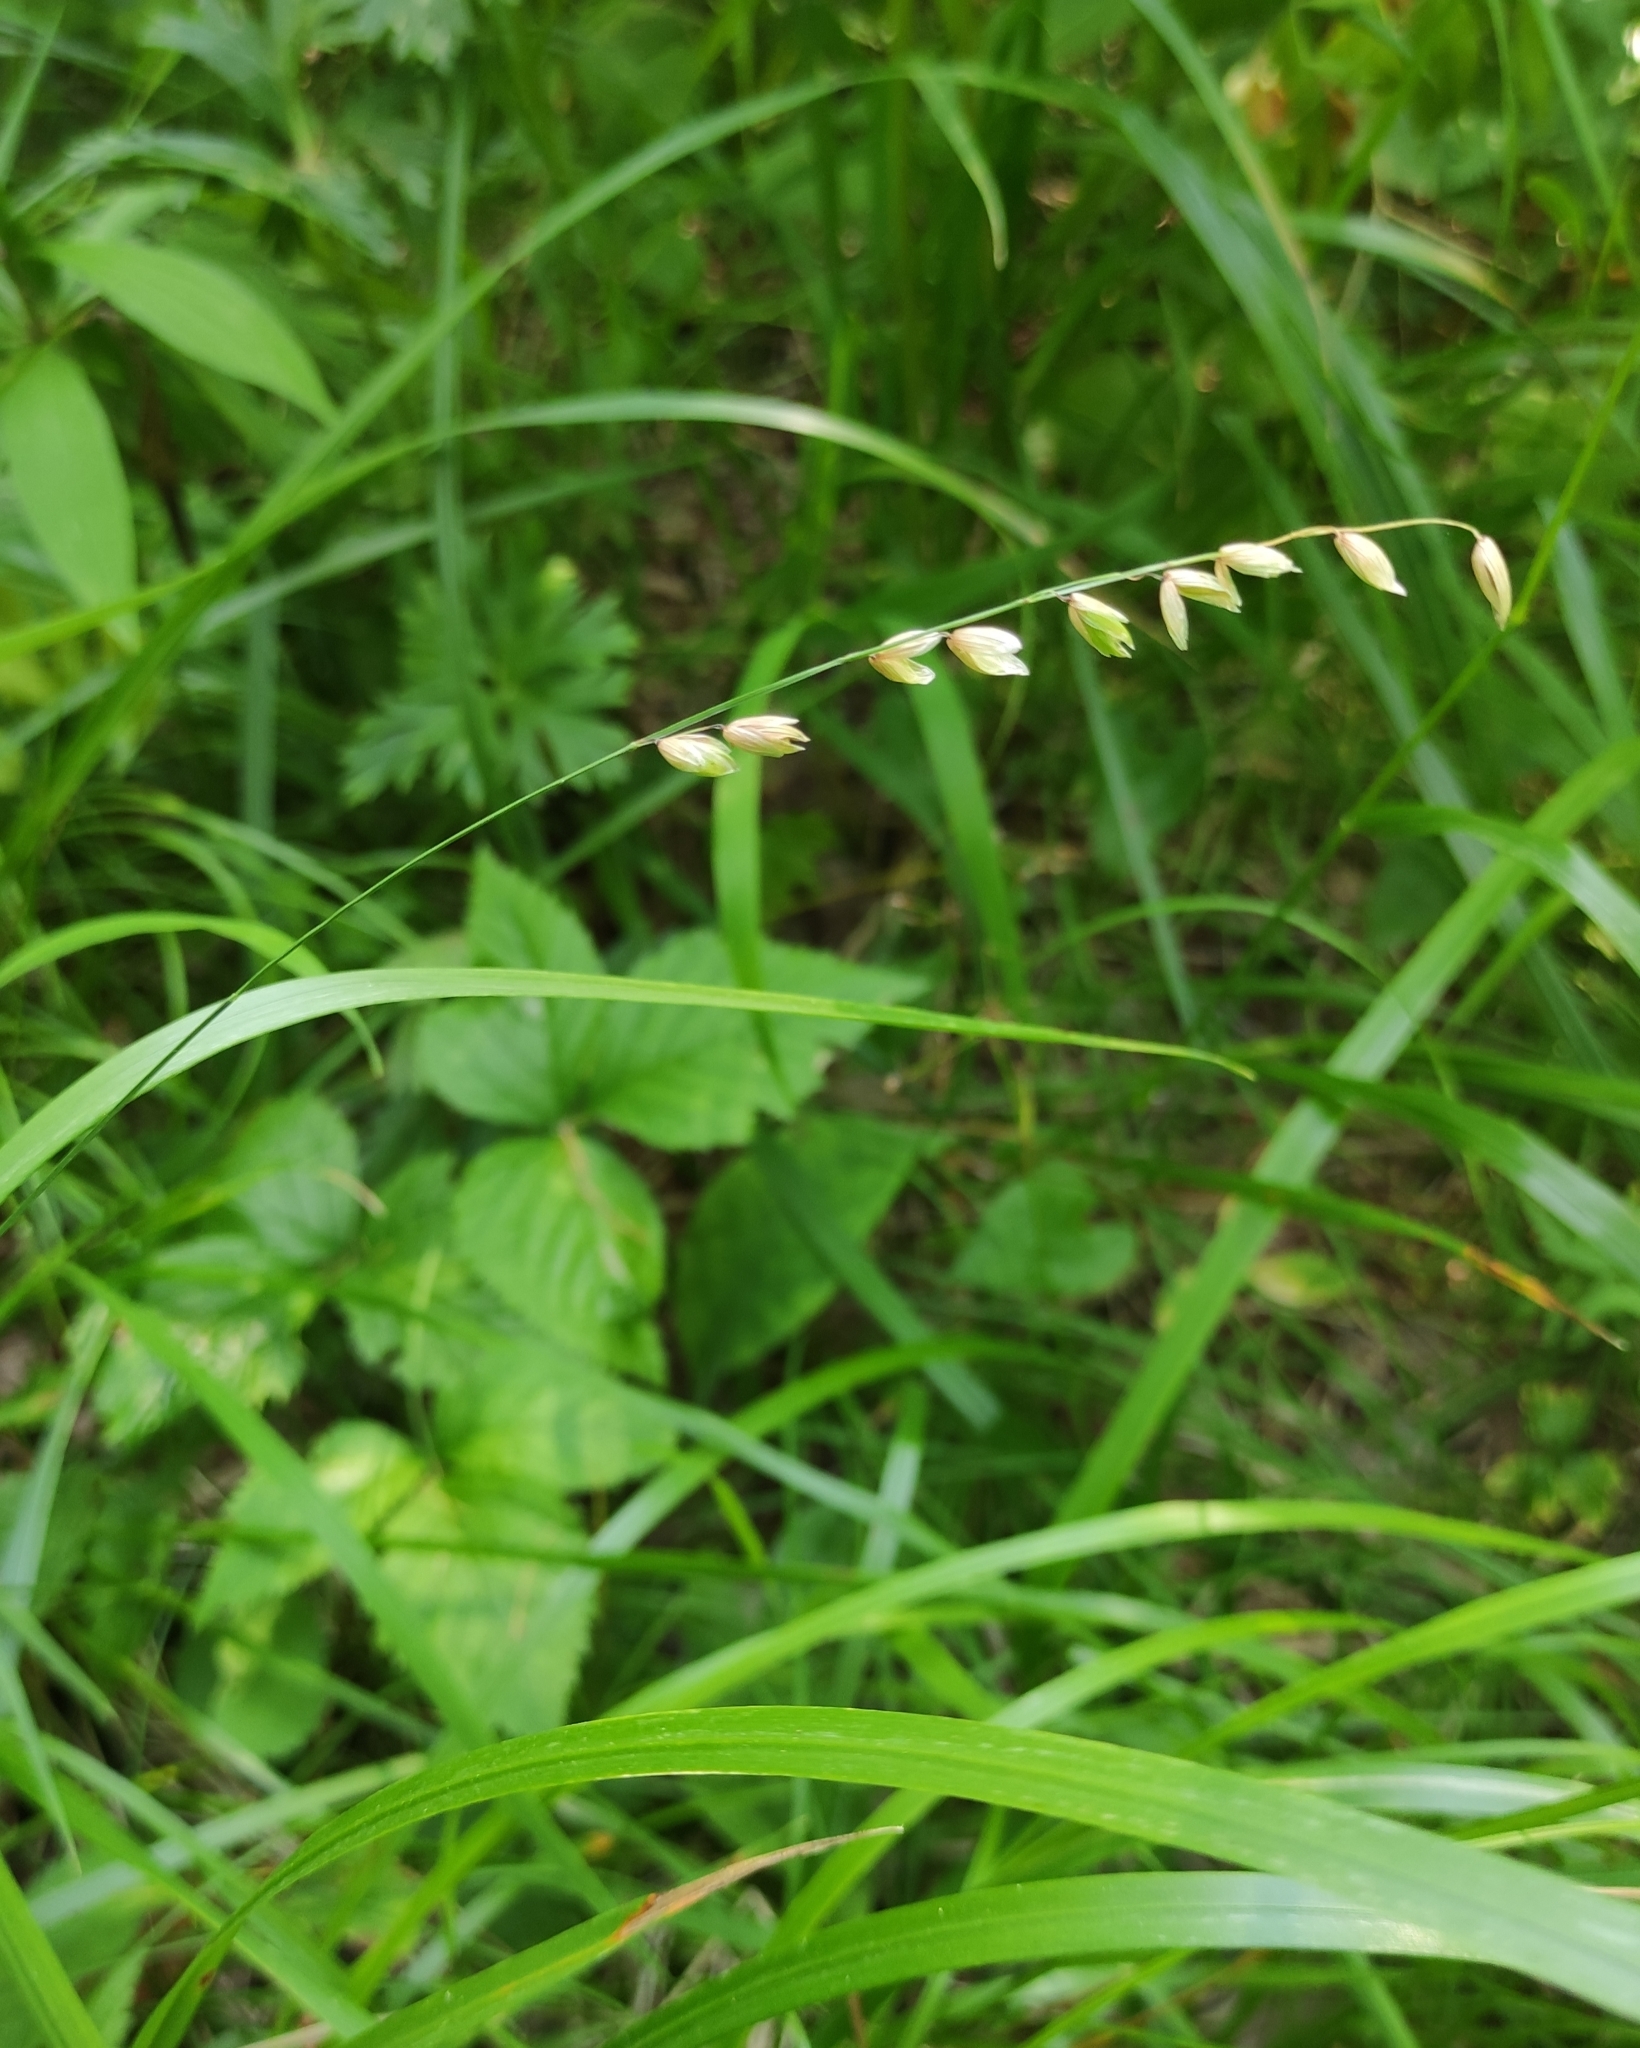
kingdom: Plantae
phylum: Tracheophyta
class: Liliopsida
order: Poales
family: Poaceae
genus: Melica
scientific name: Melica nutans
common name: Mountain melick
